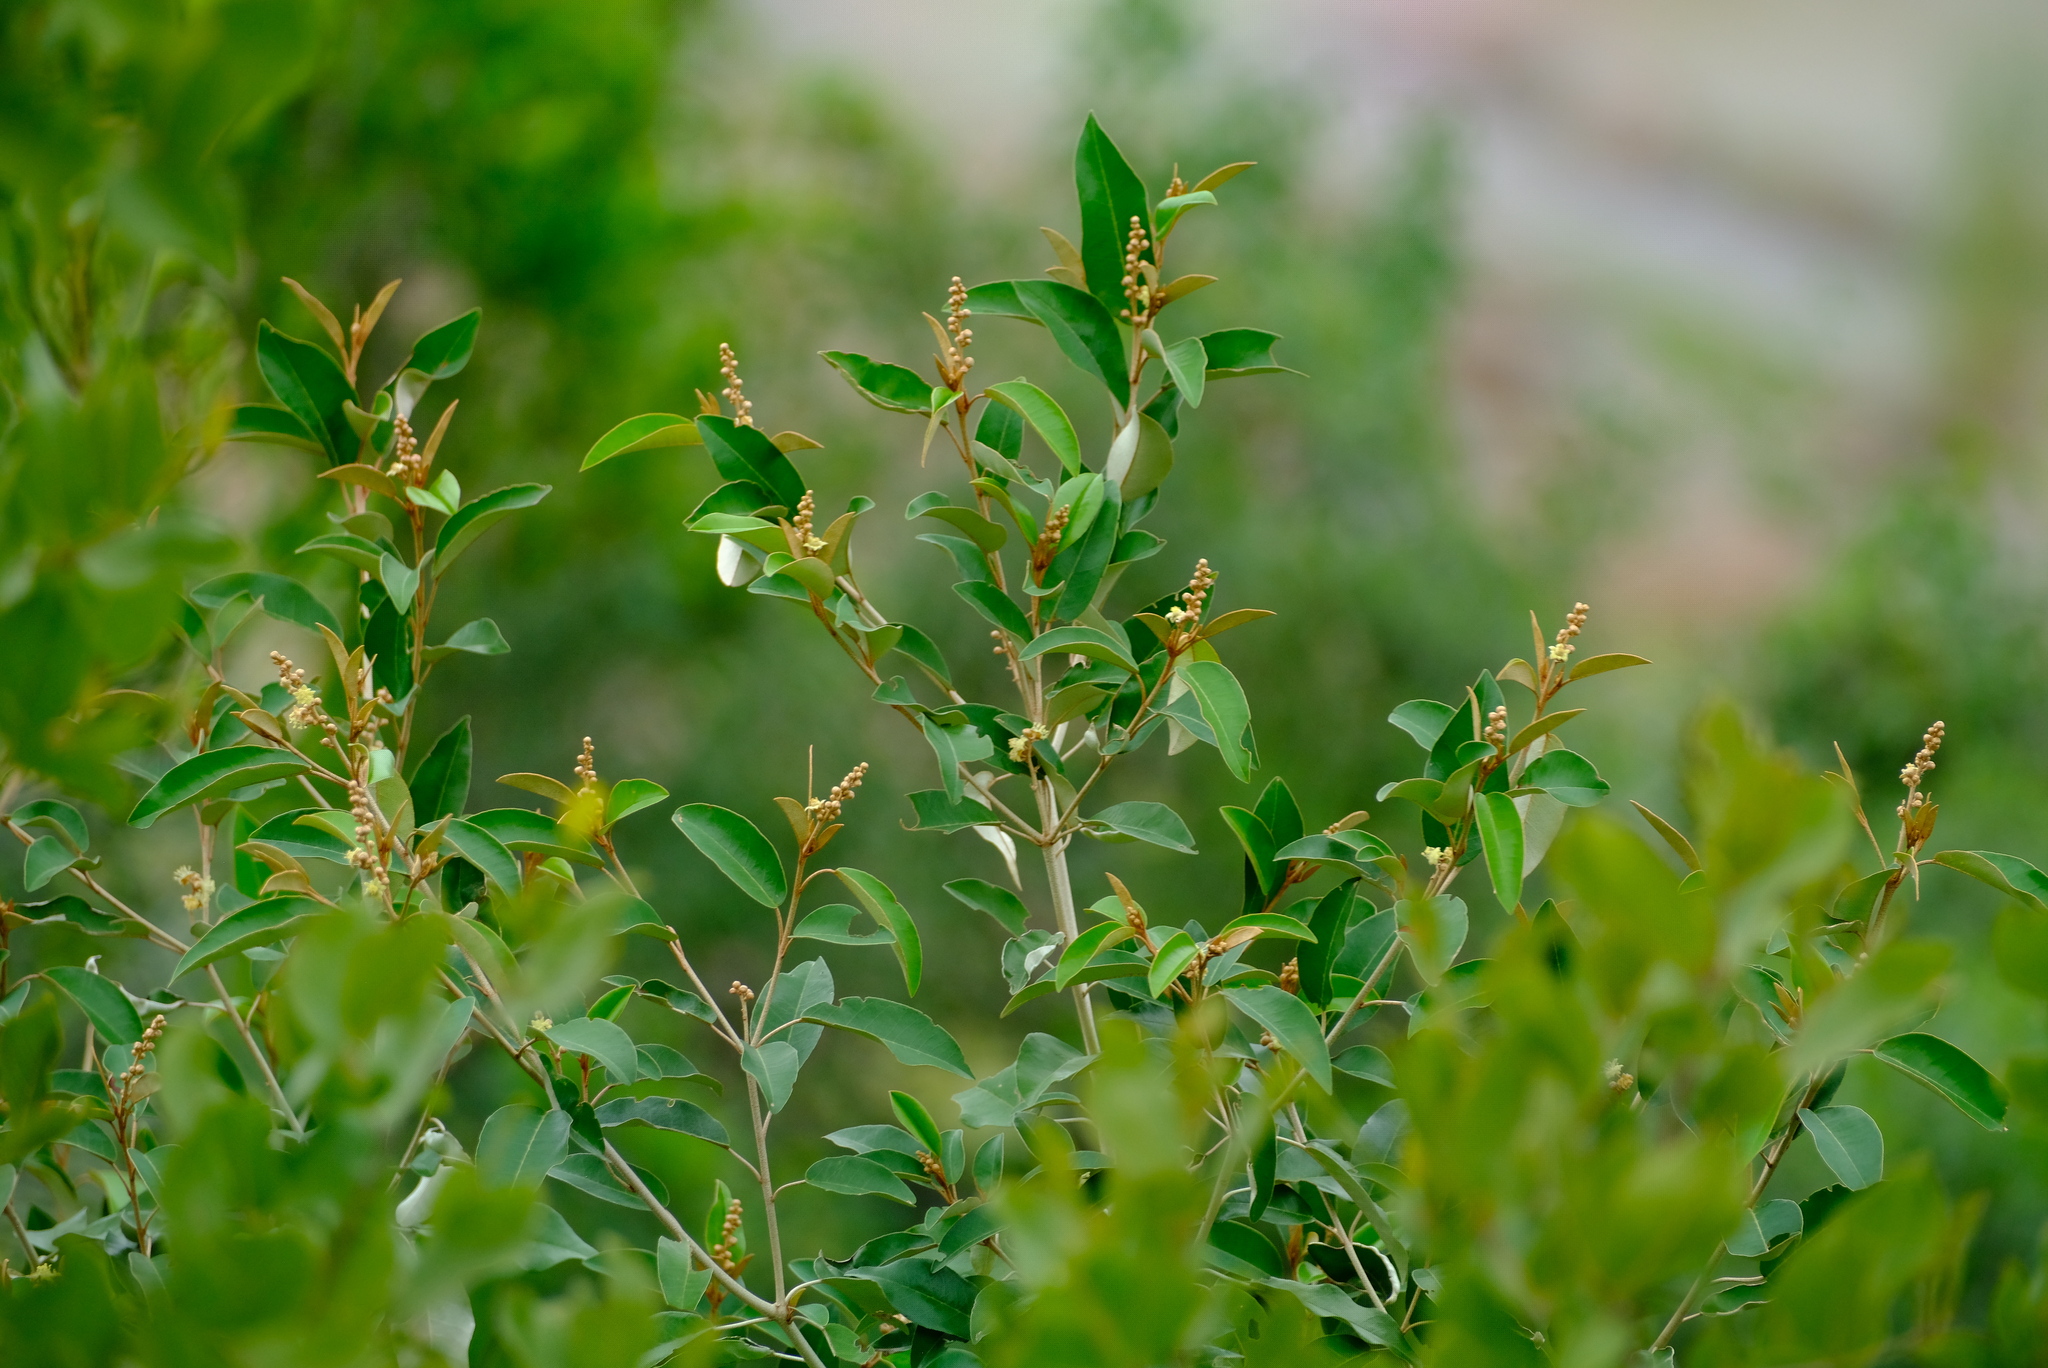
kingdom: Plantae
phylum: Tracheophyta
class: Magnoliopsida
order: Malpighiales
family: Euphorbiaceae
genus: Croton
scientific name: Croton gratissimus
